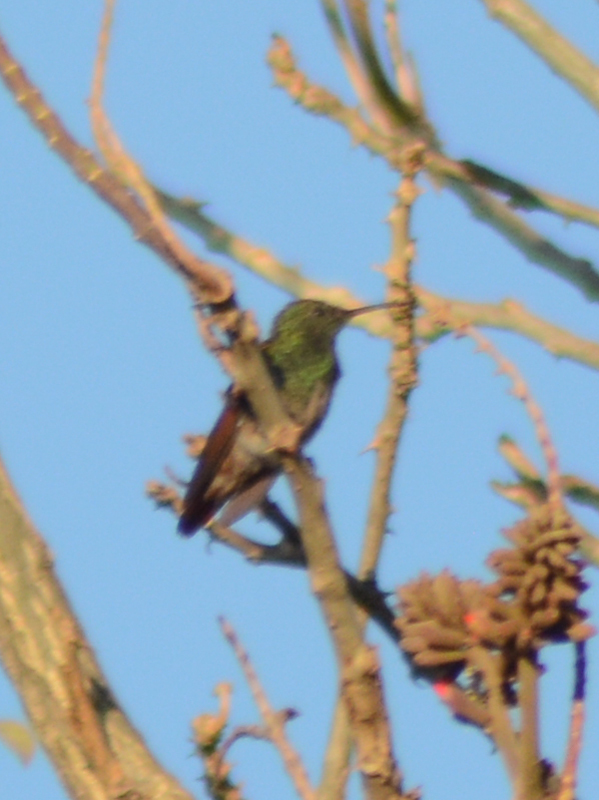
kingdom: Animalia
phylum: Chordata
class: Aves
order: Apodiformes
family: Trochilidae
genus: Saucerottia
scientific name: Saucerottia beryllina
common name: Berylline hummingbird
